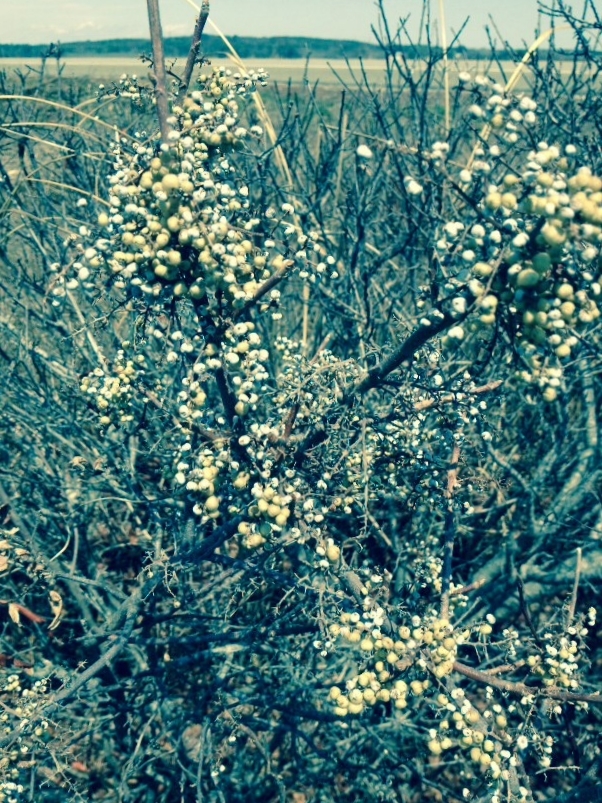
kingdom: Plantae
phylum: Tracheophyta
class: Magnoliopsida
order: Sapindales
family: Anacardiaceae
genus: Toxicodendron
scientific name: Toxicodendron rydbergii
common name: Rydberg's poison-ivy
